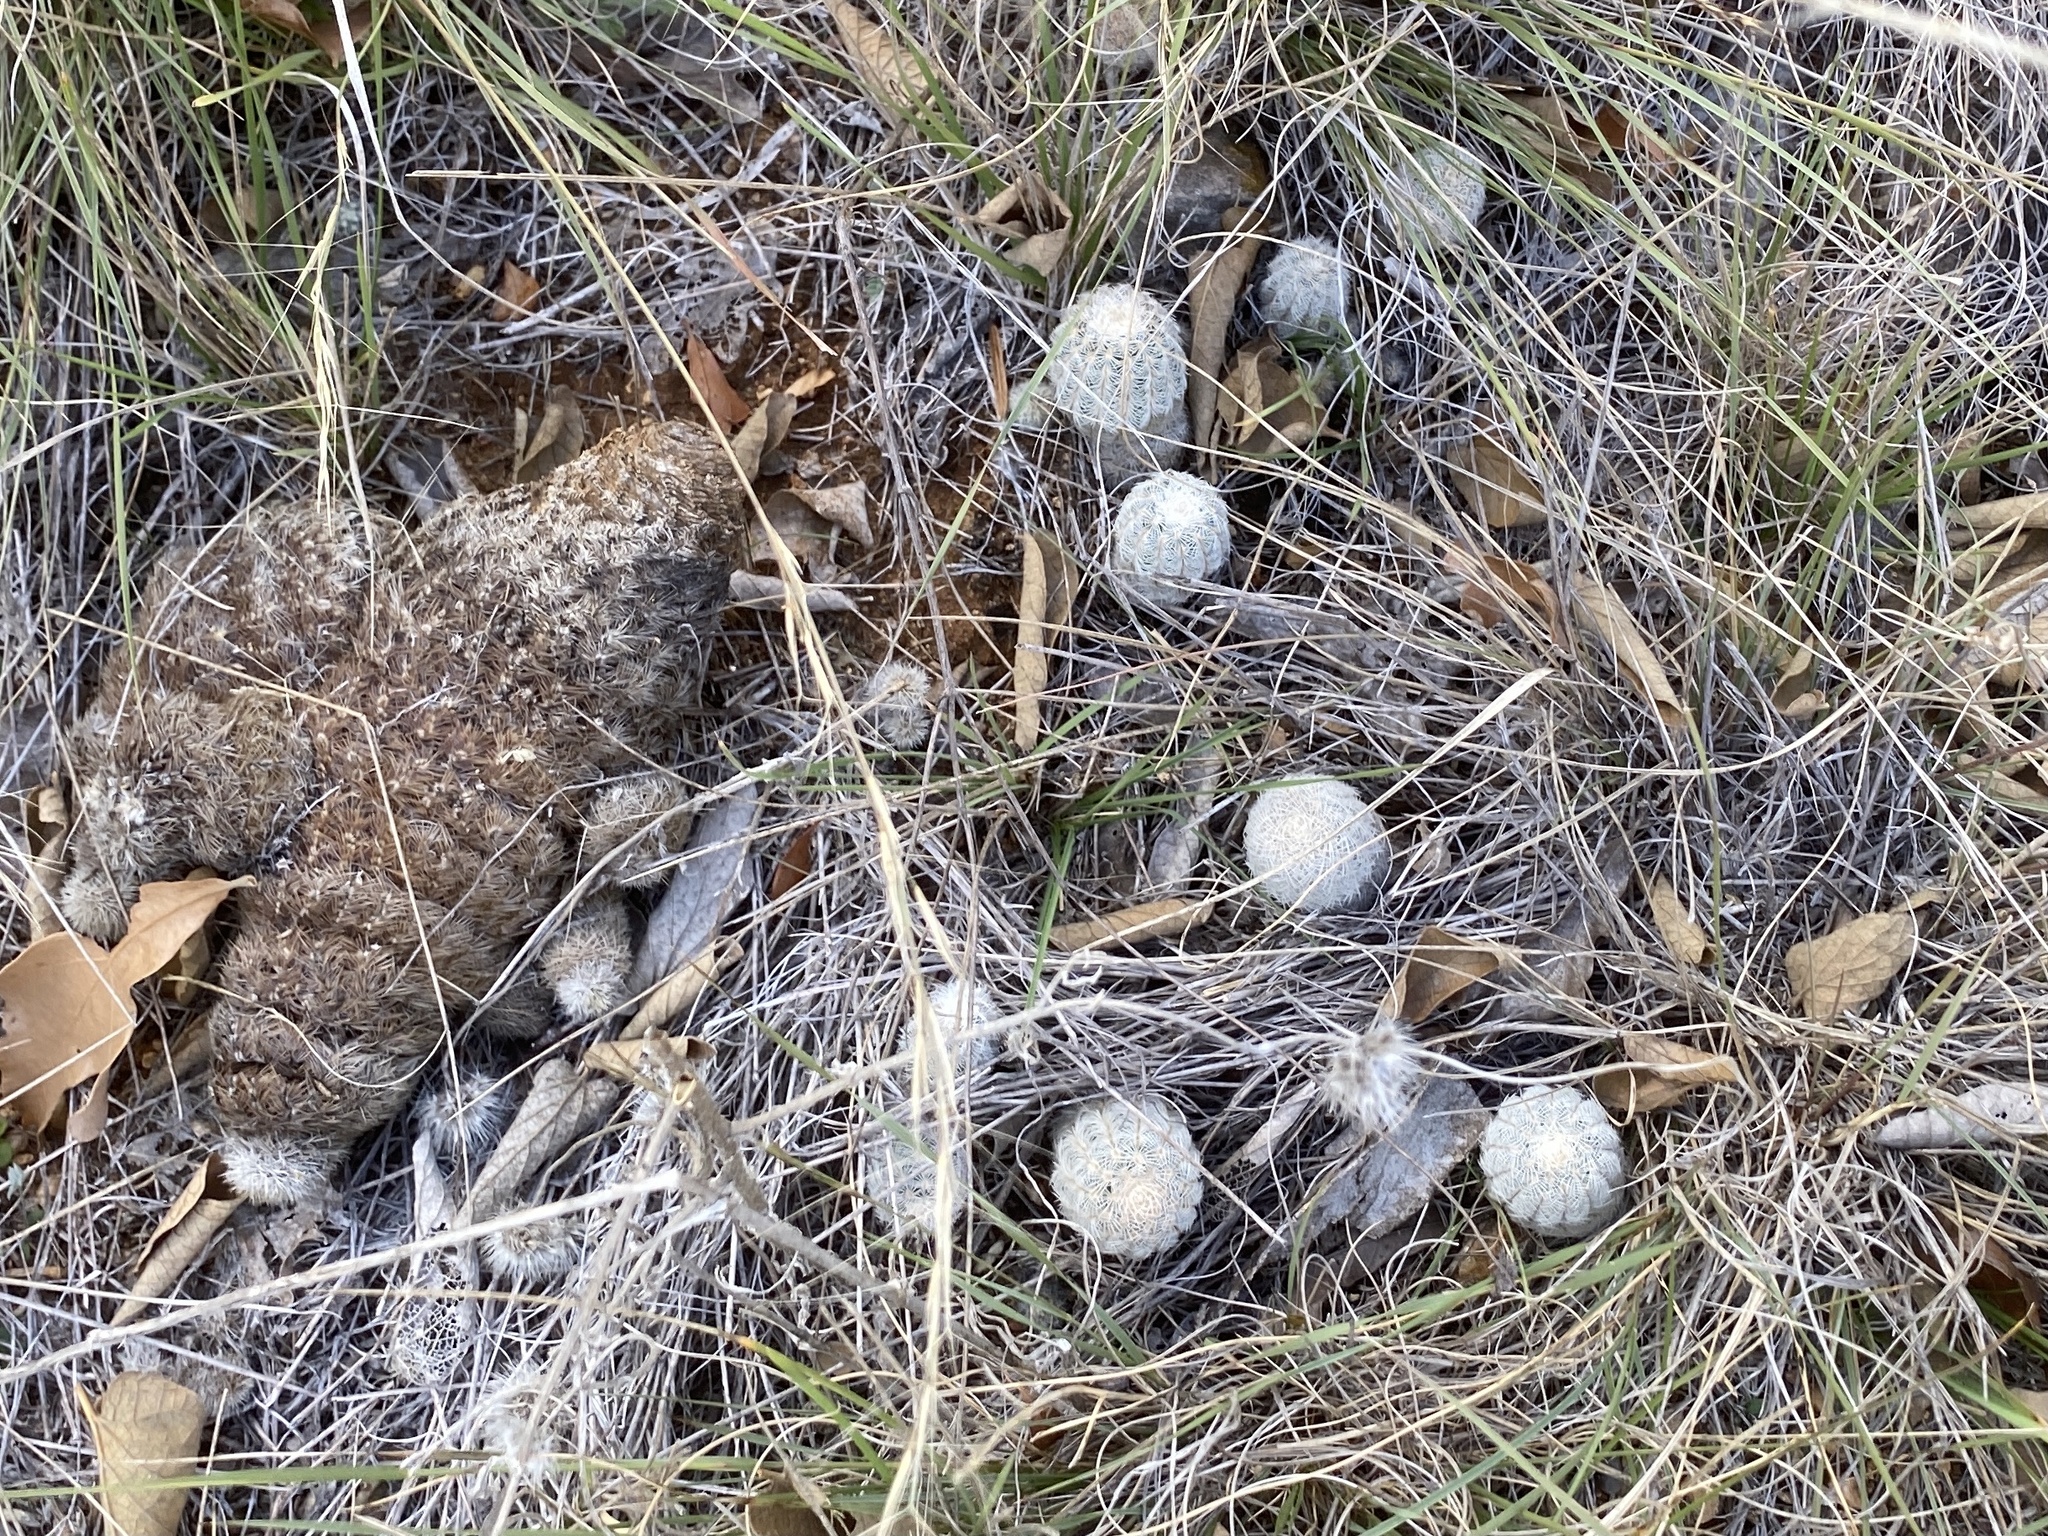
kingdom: Plantae
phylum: Tracheophyta
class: Magnoliopsida
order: Caryophyllales
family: Cactaceae
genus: Echinocereus
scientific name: Echinocereus reichenbachii
